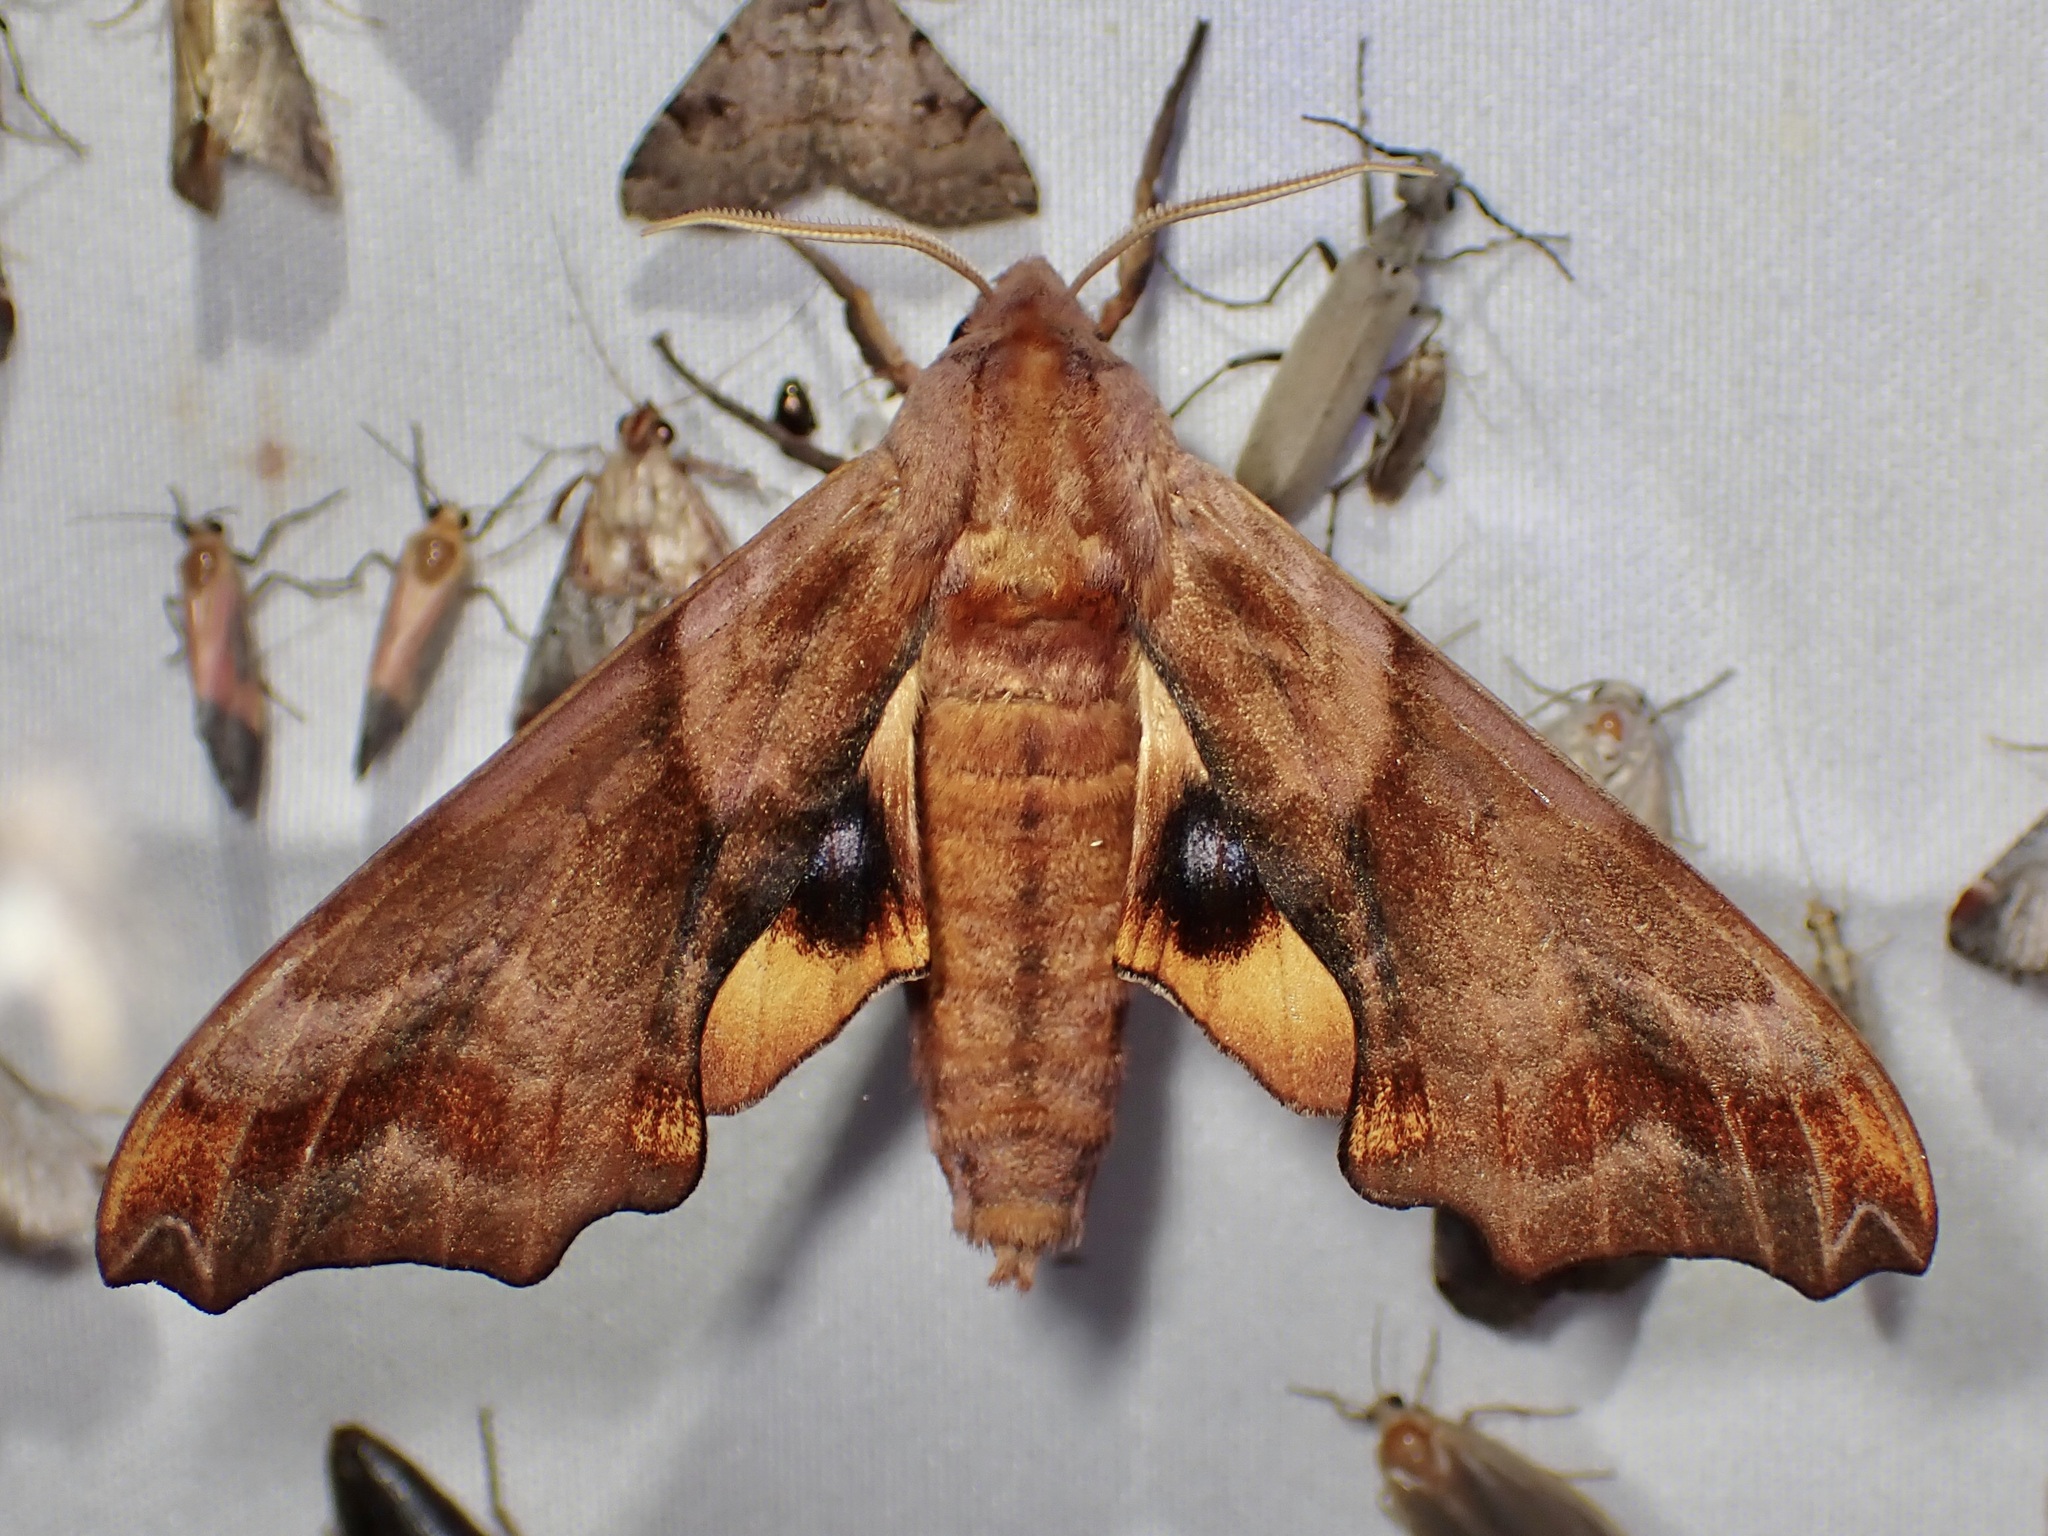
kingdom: Animalia
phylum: Arthropoda
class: Insecta
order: Lepidoptera
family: Sphingidae
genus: Paonias
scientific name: Paonias myops
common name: Small-eyed sphinx
